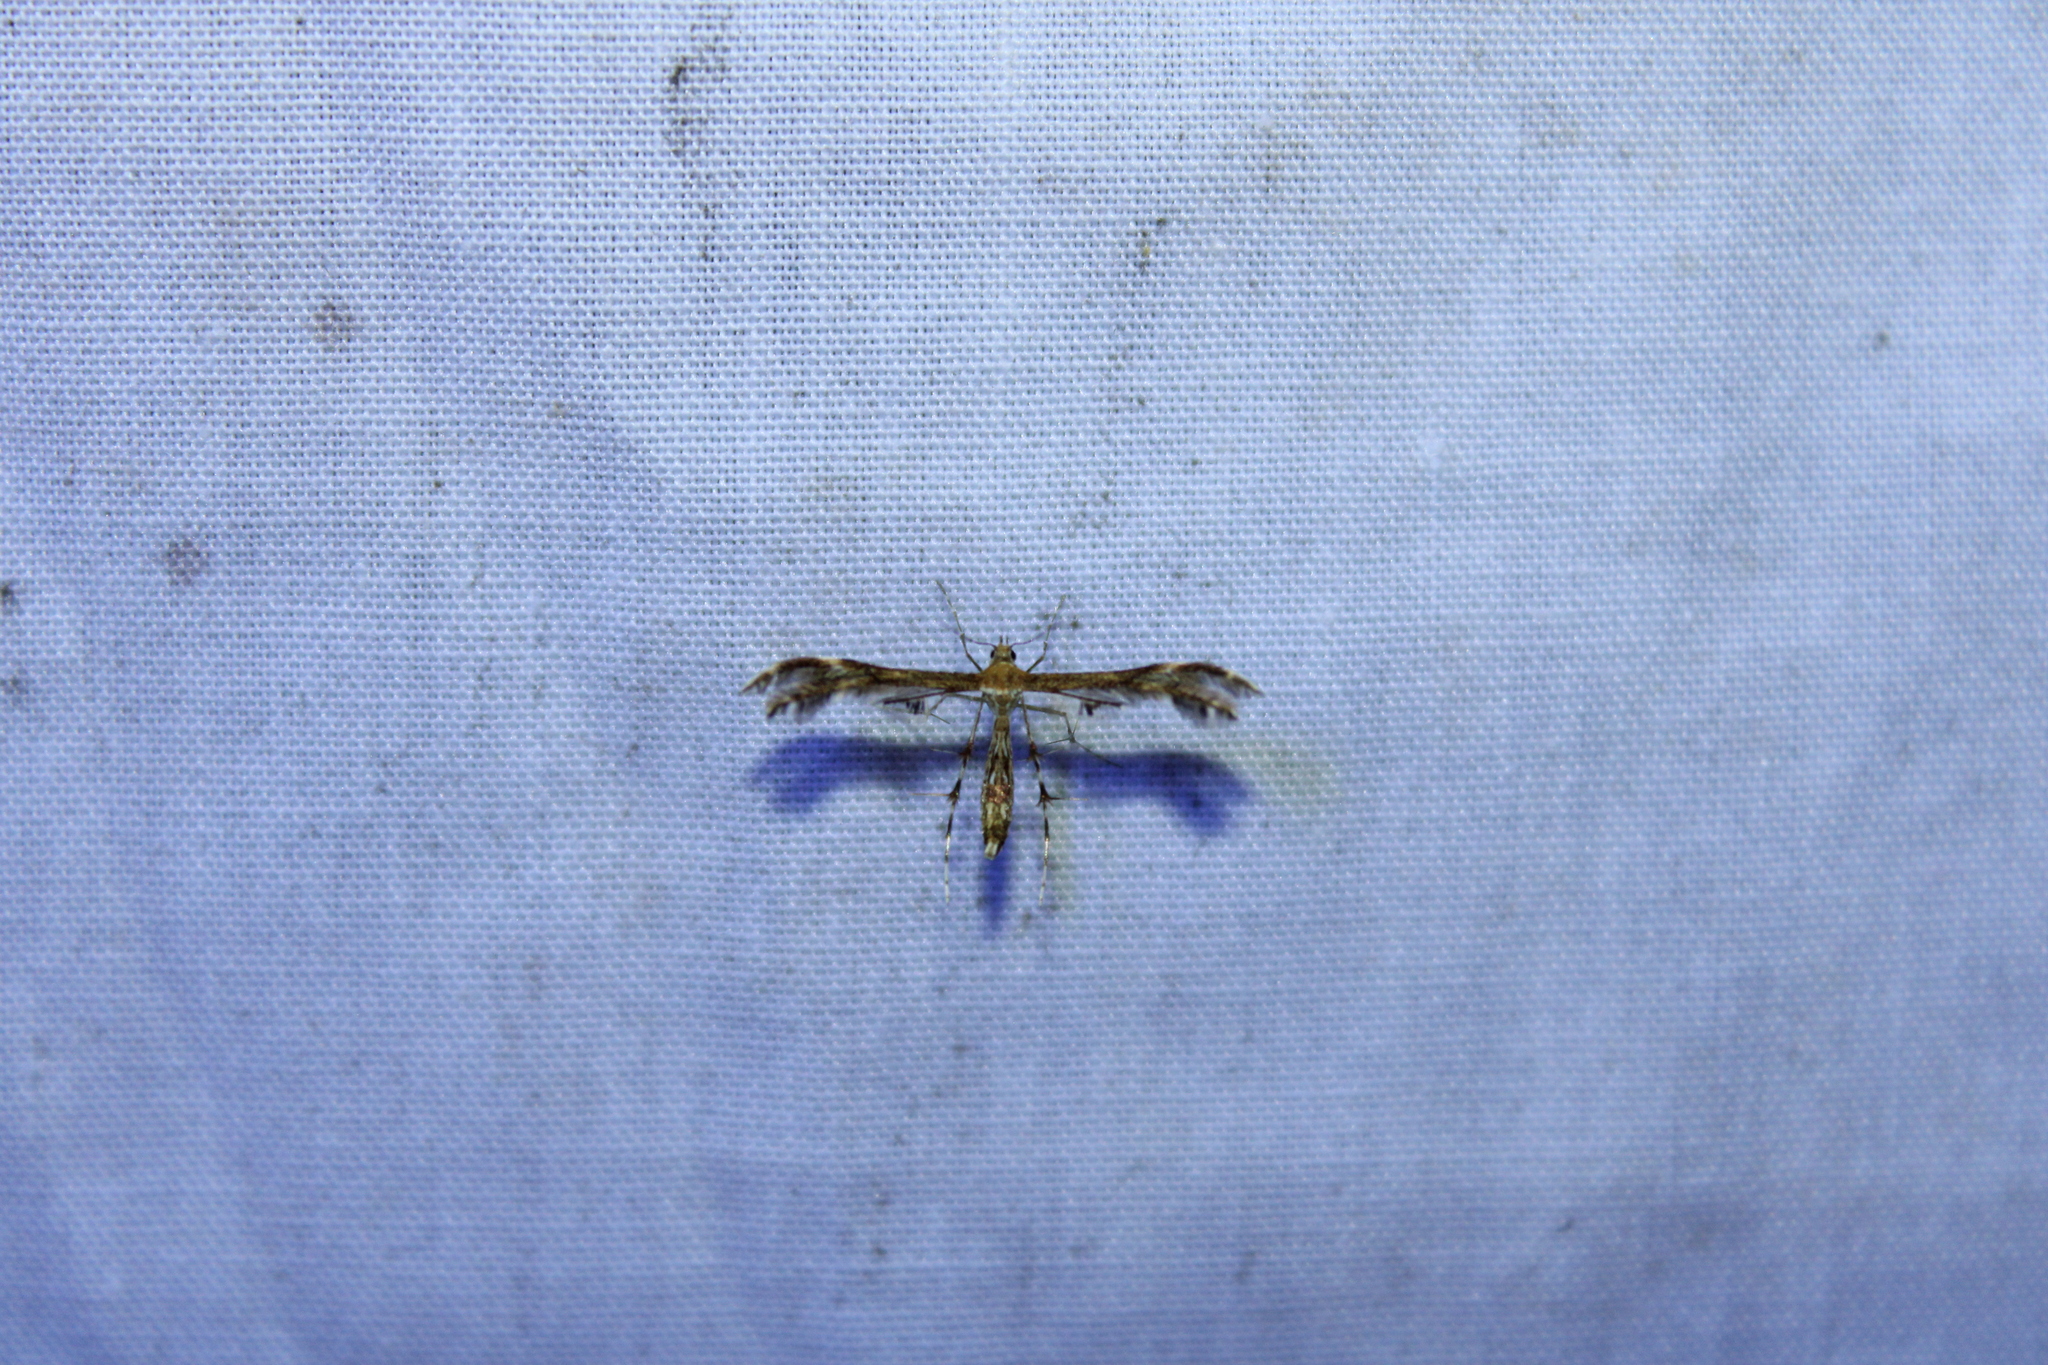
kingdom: Animalia
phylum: Arthropoda
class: Insecta
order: Lepidoptera
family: Pterophoridae
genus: Dejongia
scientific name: Dejongia lobidactylus
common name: Lobed plume moth
